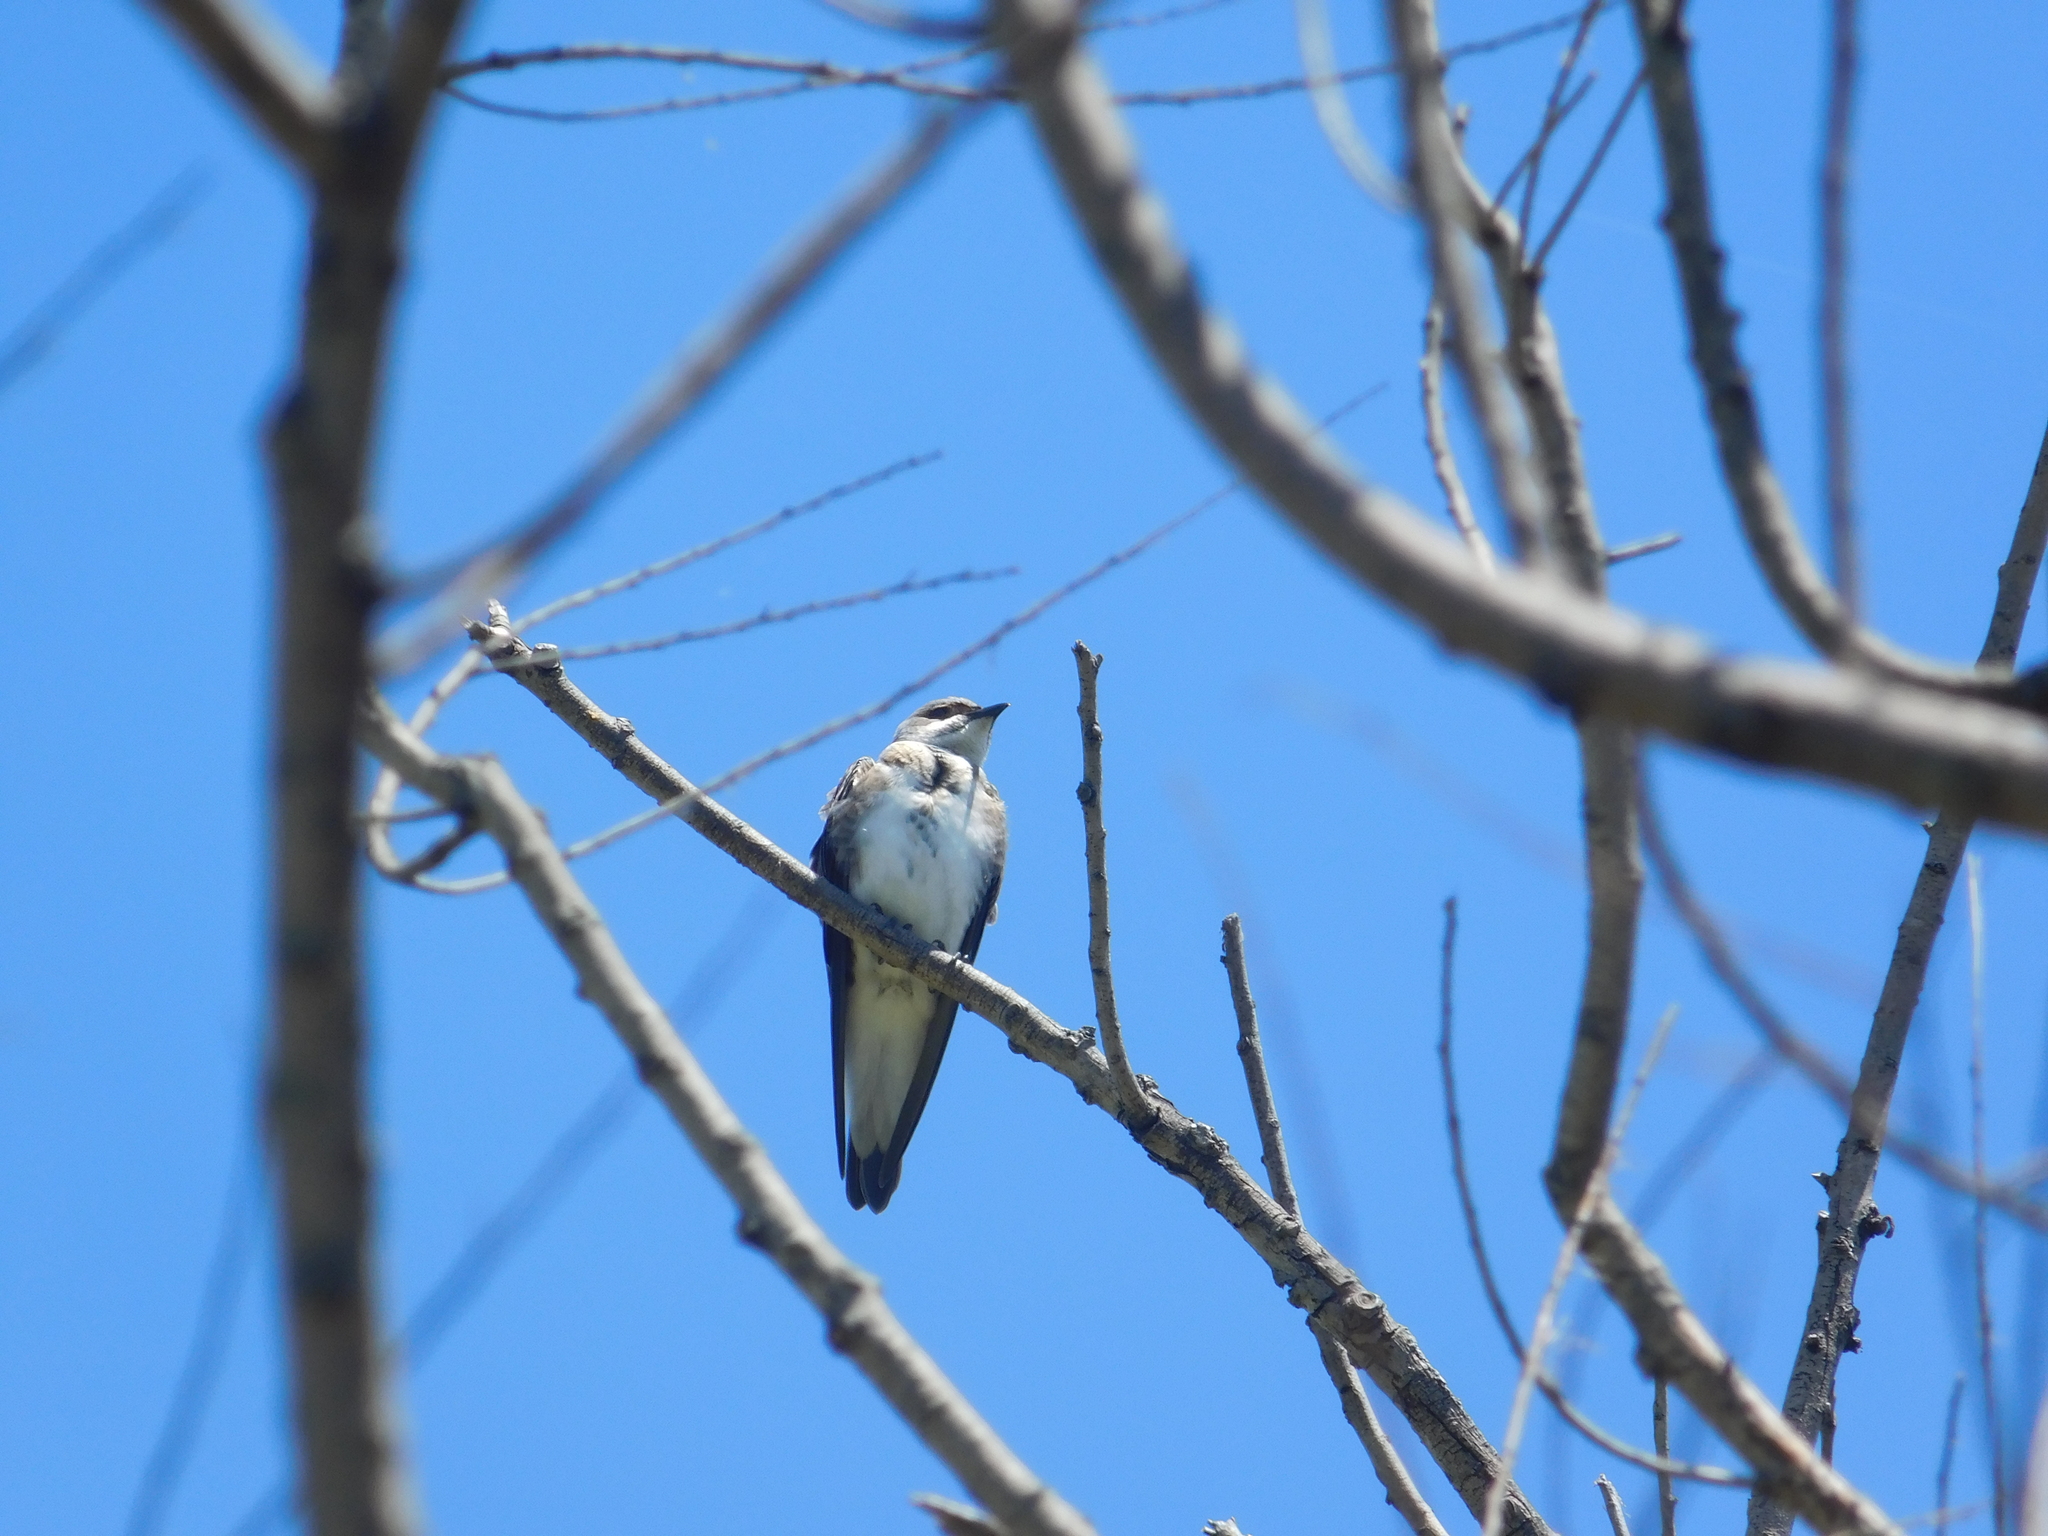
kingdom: Animalia
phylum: Chordata
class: Aves
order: Passeriformes
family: Hirundinidae
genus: Progne
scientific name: Progne tapera
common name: Brown-chested martin
